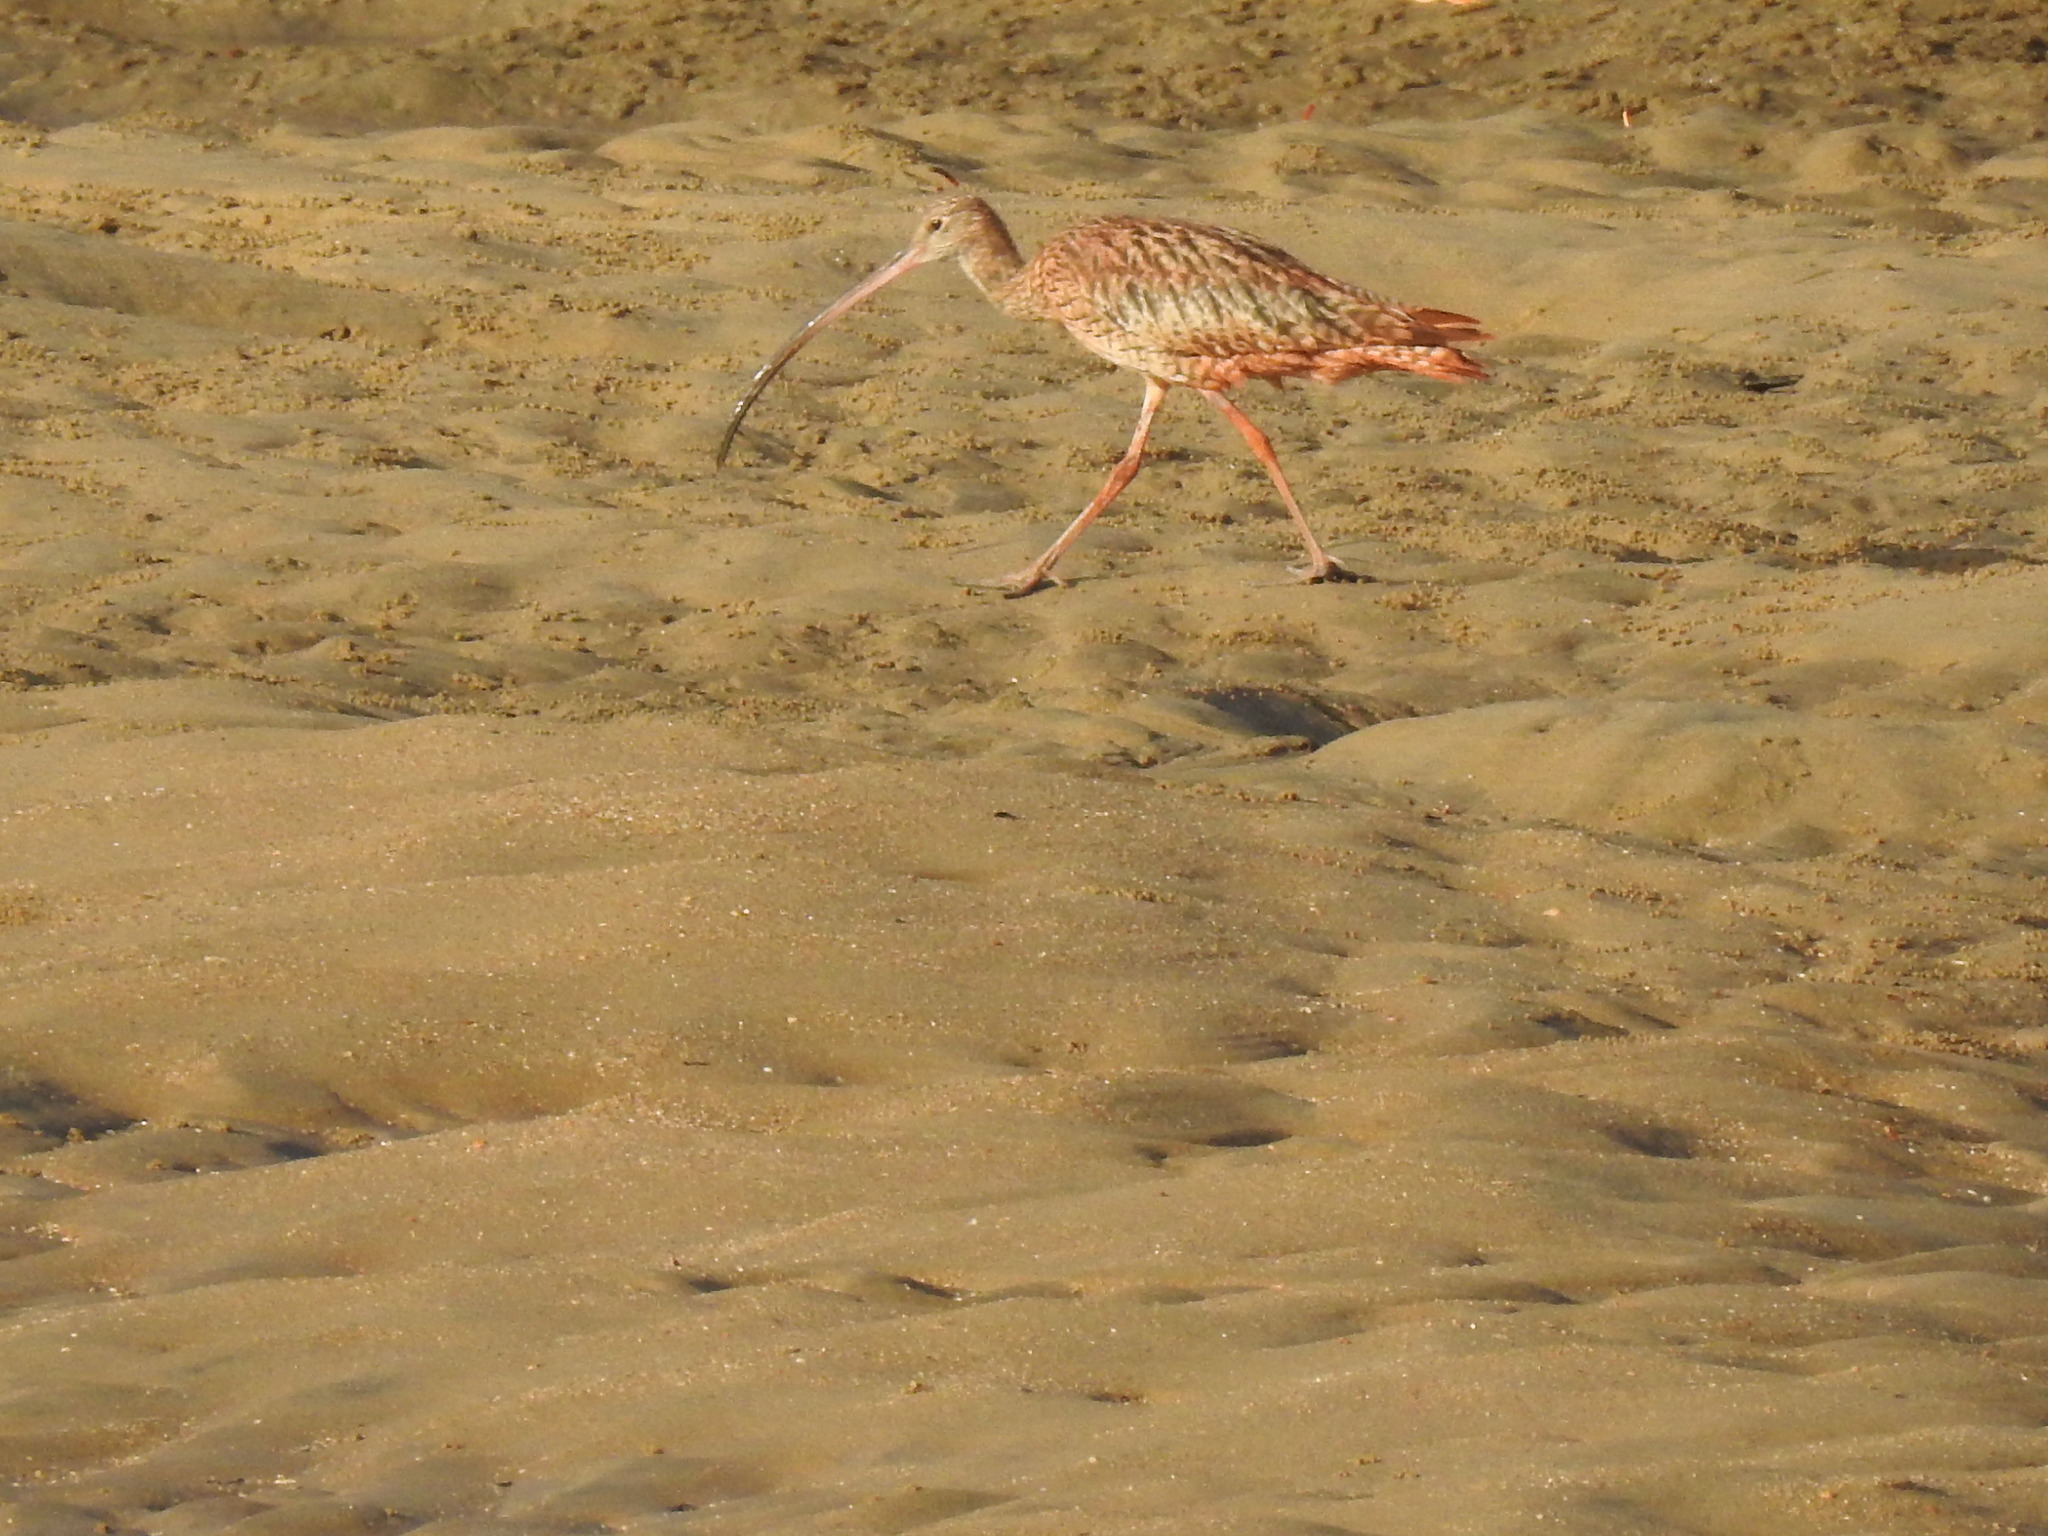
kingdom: Animalia
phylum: Chordata
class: Aves
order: Charadriiformes
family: Scolopacidae
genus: Numenius
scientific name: Numenius madagascariensis
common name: Far eastern curlew
